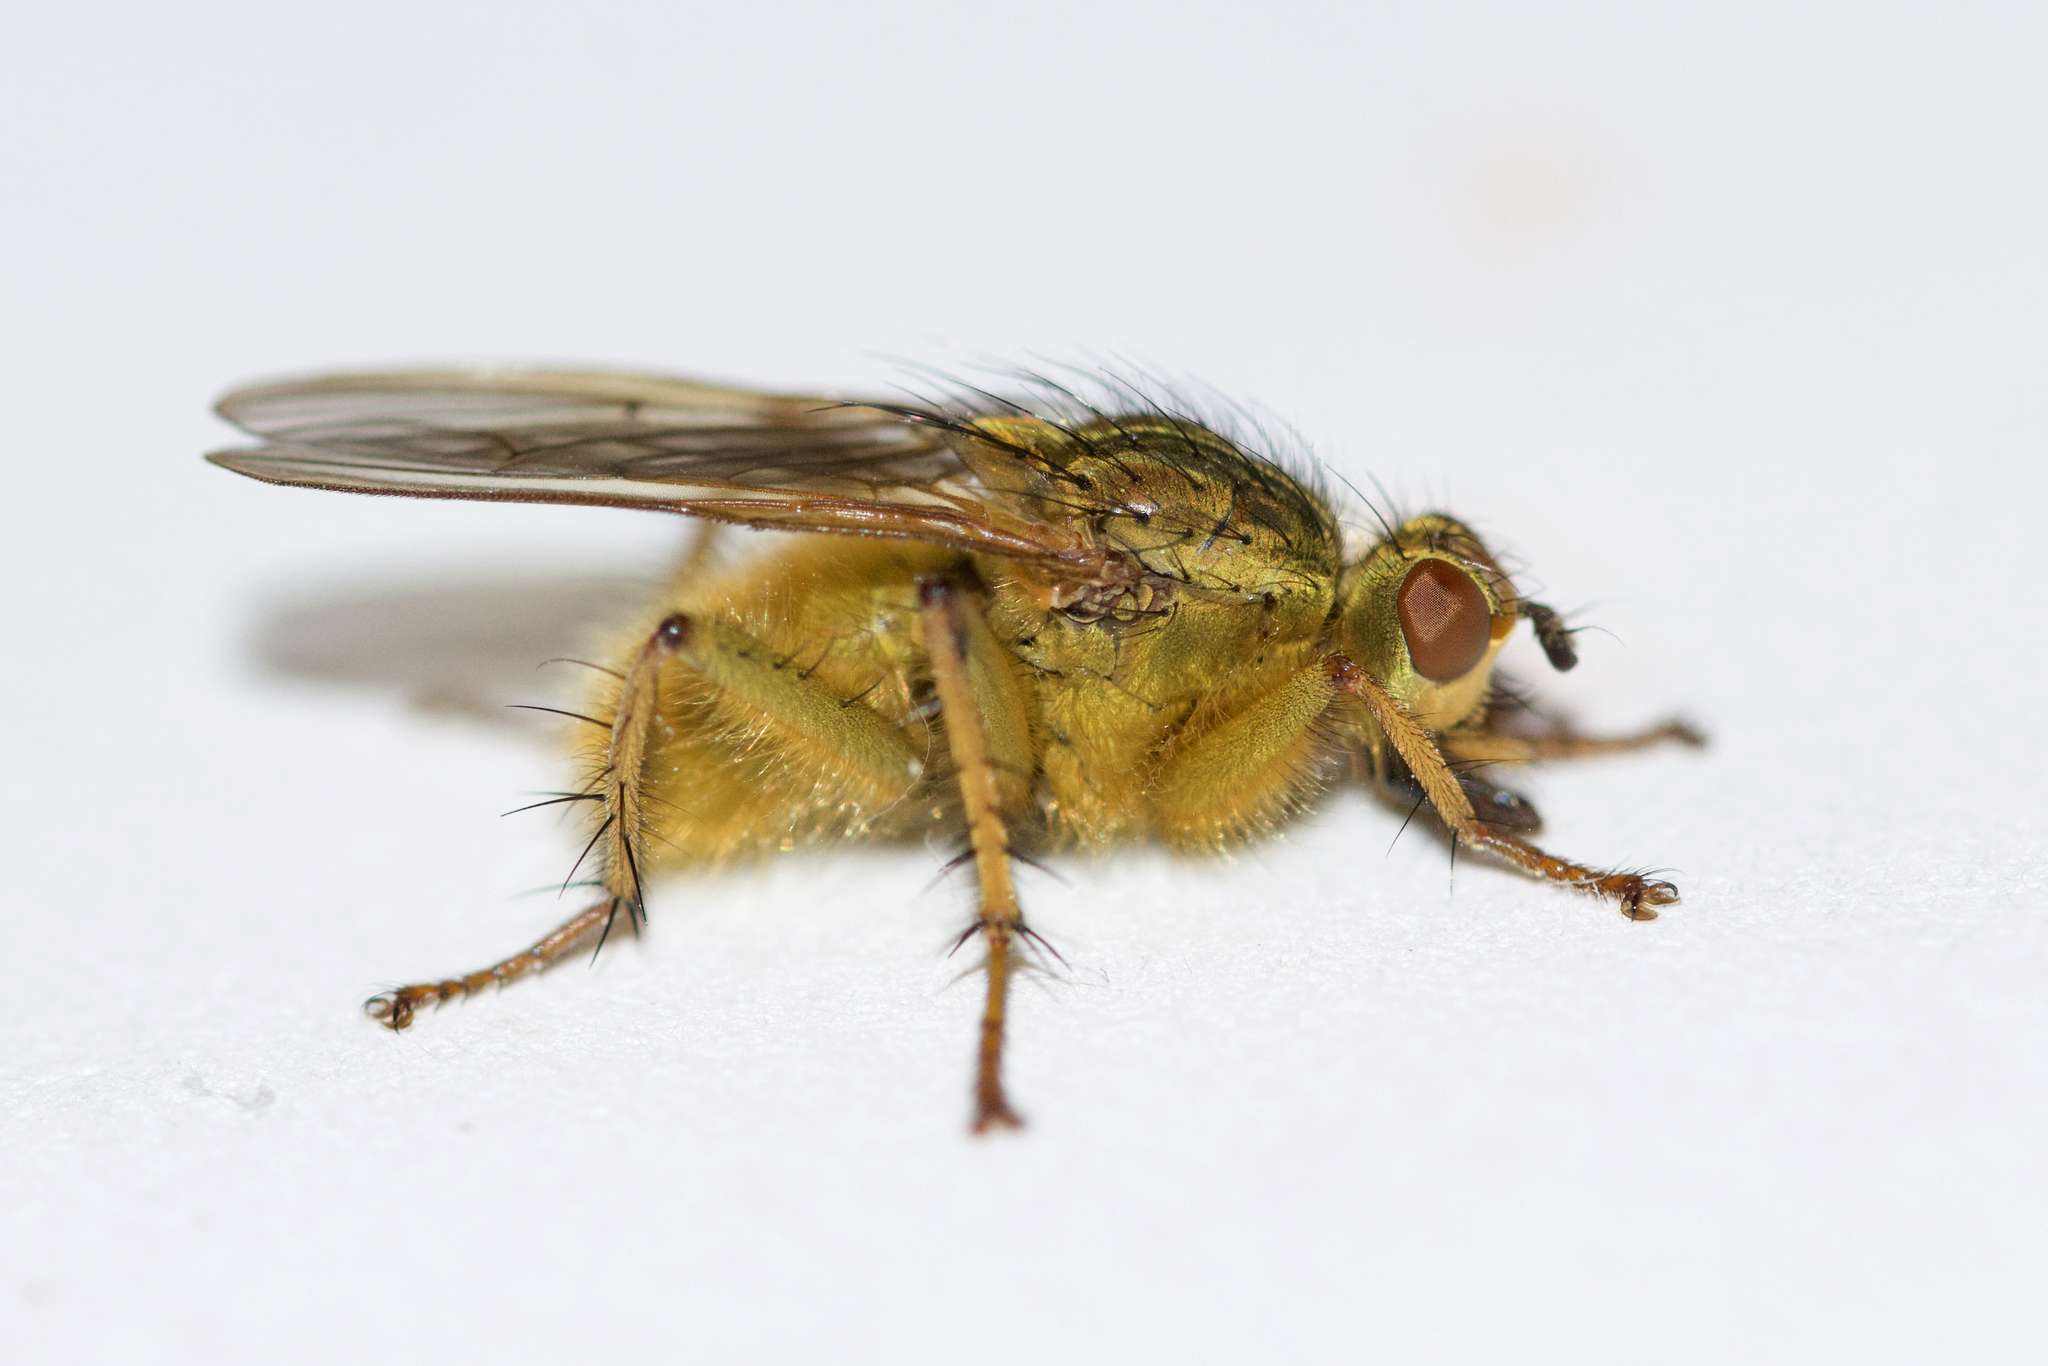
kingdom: Animalia
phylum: Arthropoda
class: Insecta
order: Diptera
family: Scathophagidae
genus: Scathophaga
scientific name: Scathophaga stercoraria
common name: Yellow dung fly
